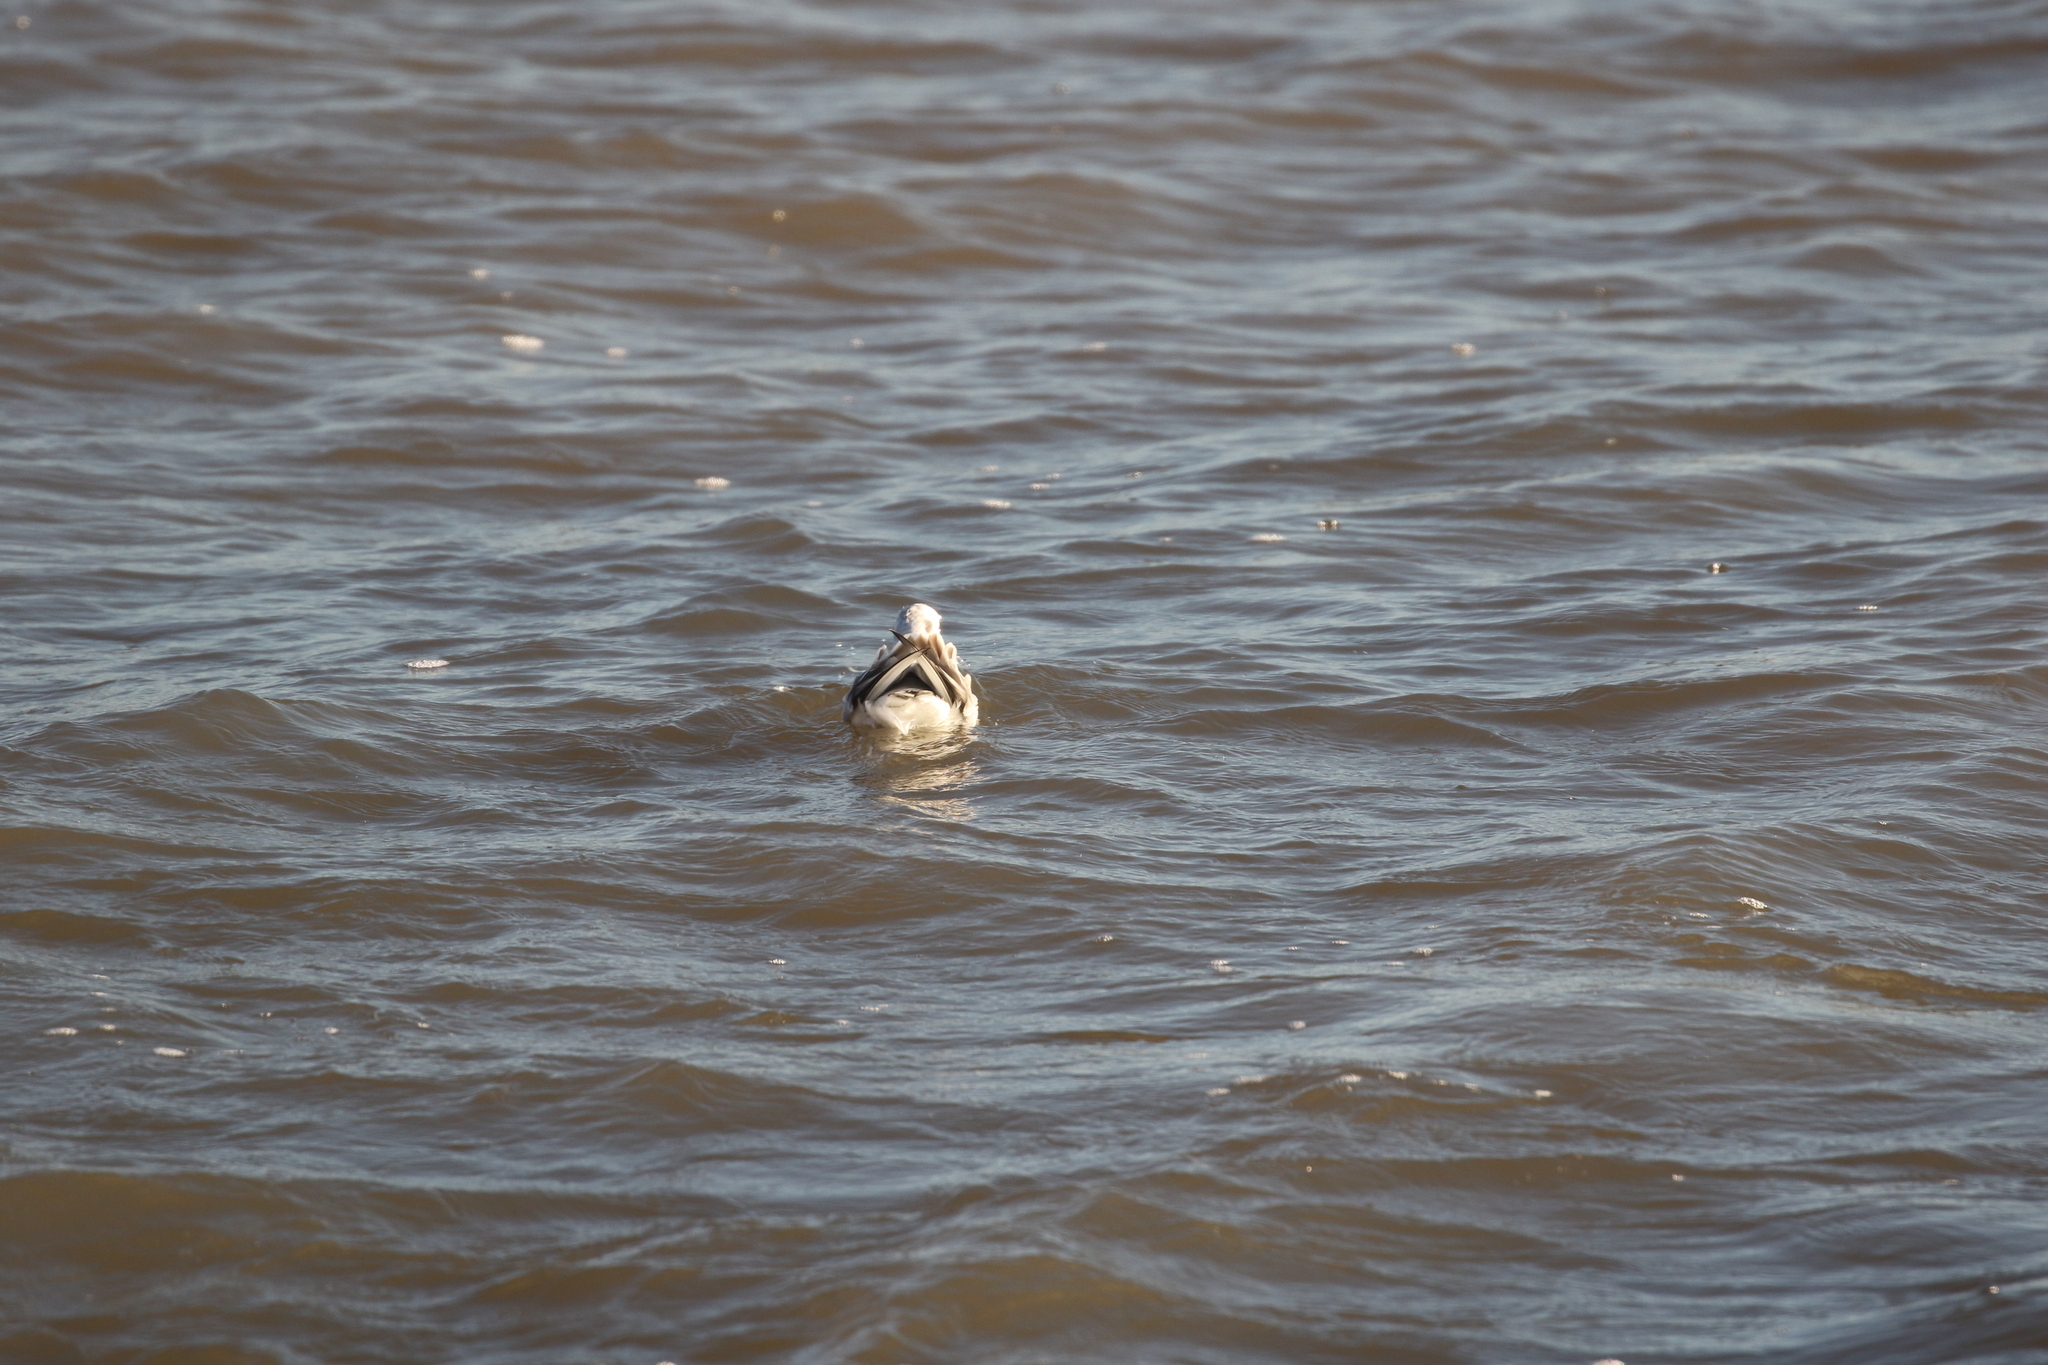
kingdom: Animalia
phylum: Chordata
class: Aves
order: Charadriiformes
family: Laridae
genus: Chroicocephalus
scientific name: Chroicocephalus philadelphia
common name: Bonaparte's gull
